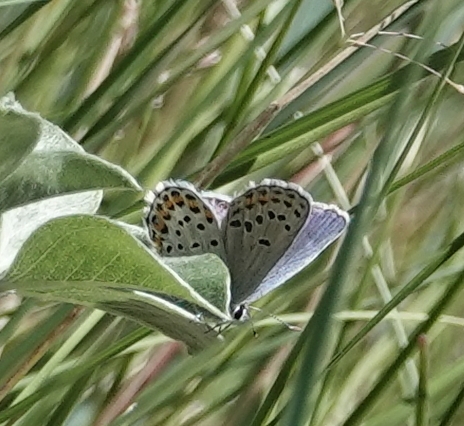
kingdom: Animalia
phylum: Arthropoda
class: Insecta
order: Lepidoptera
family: Lycaenidae
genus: Lycaeides
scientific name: Lycaeides melissa
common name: Melissa blue
